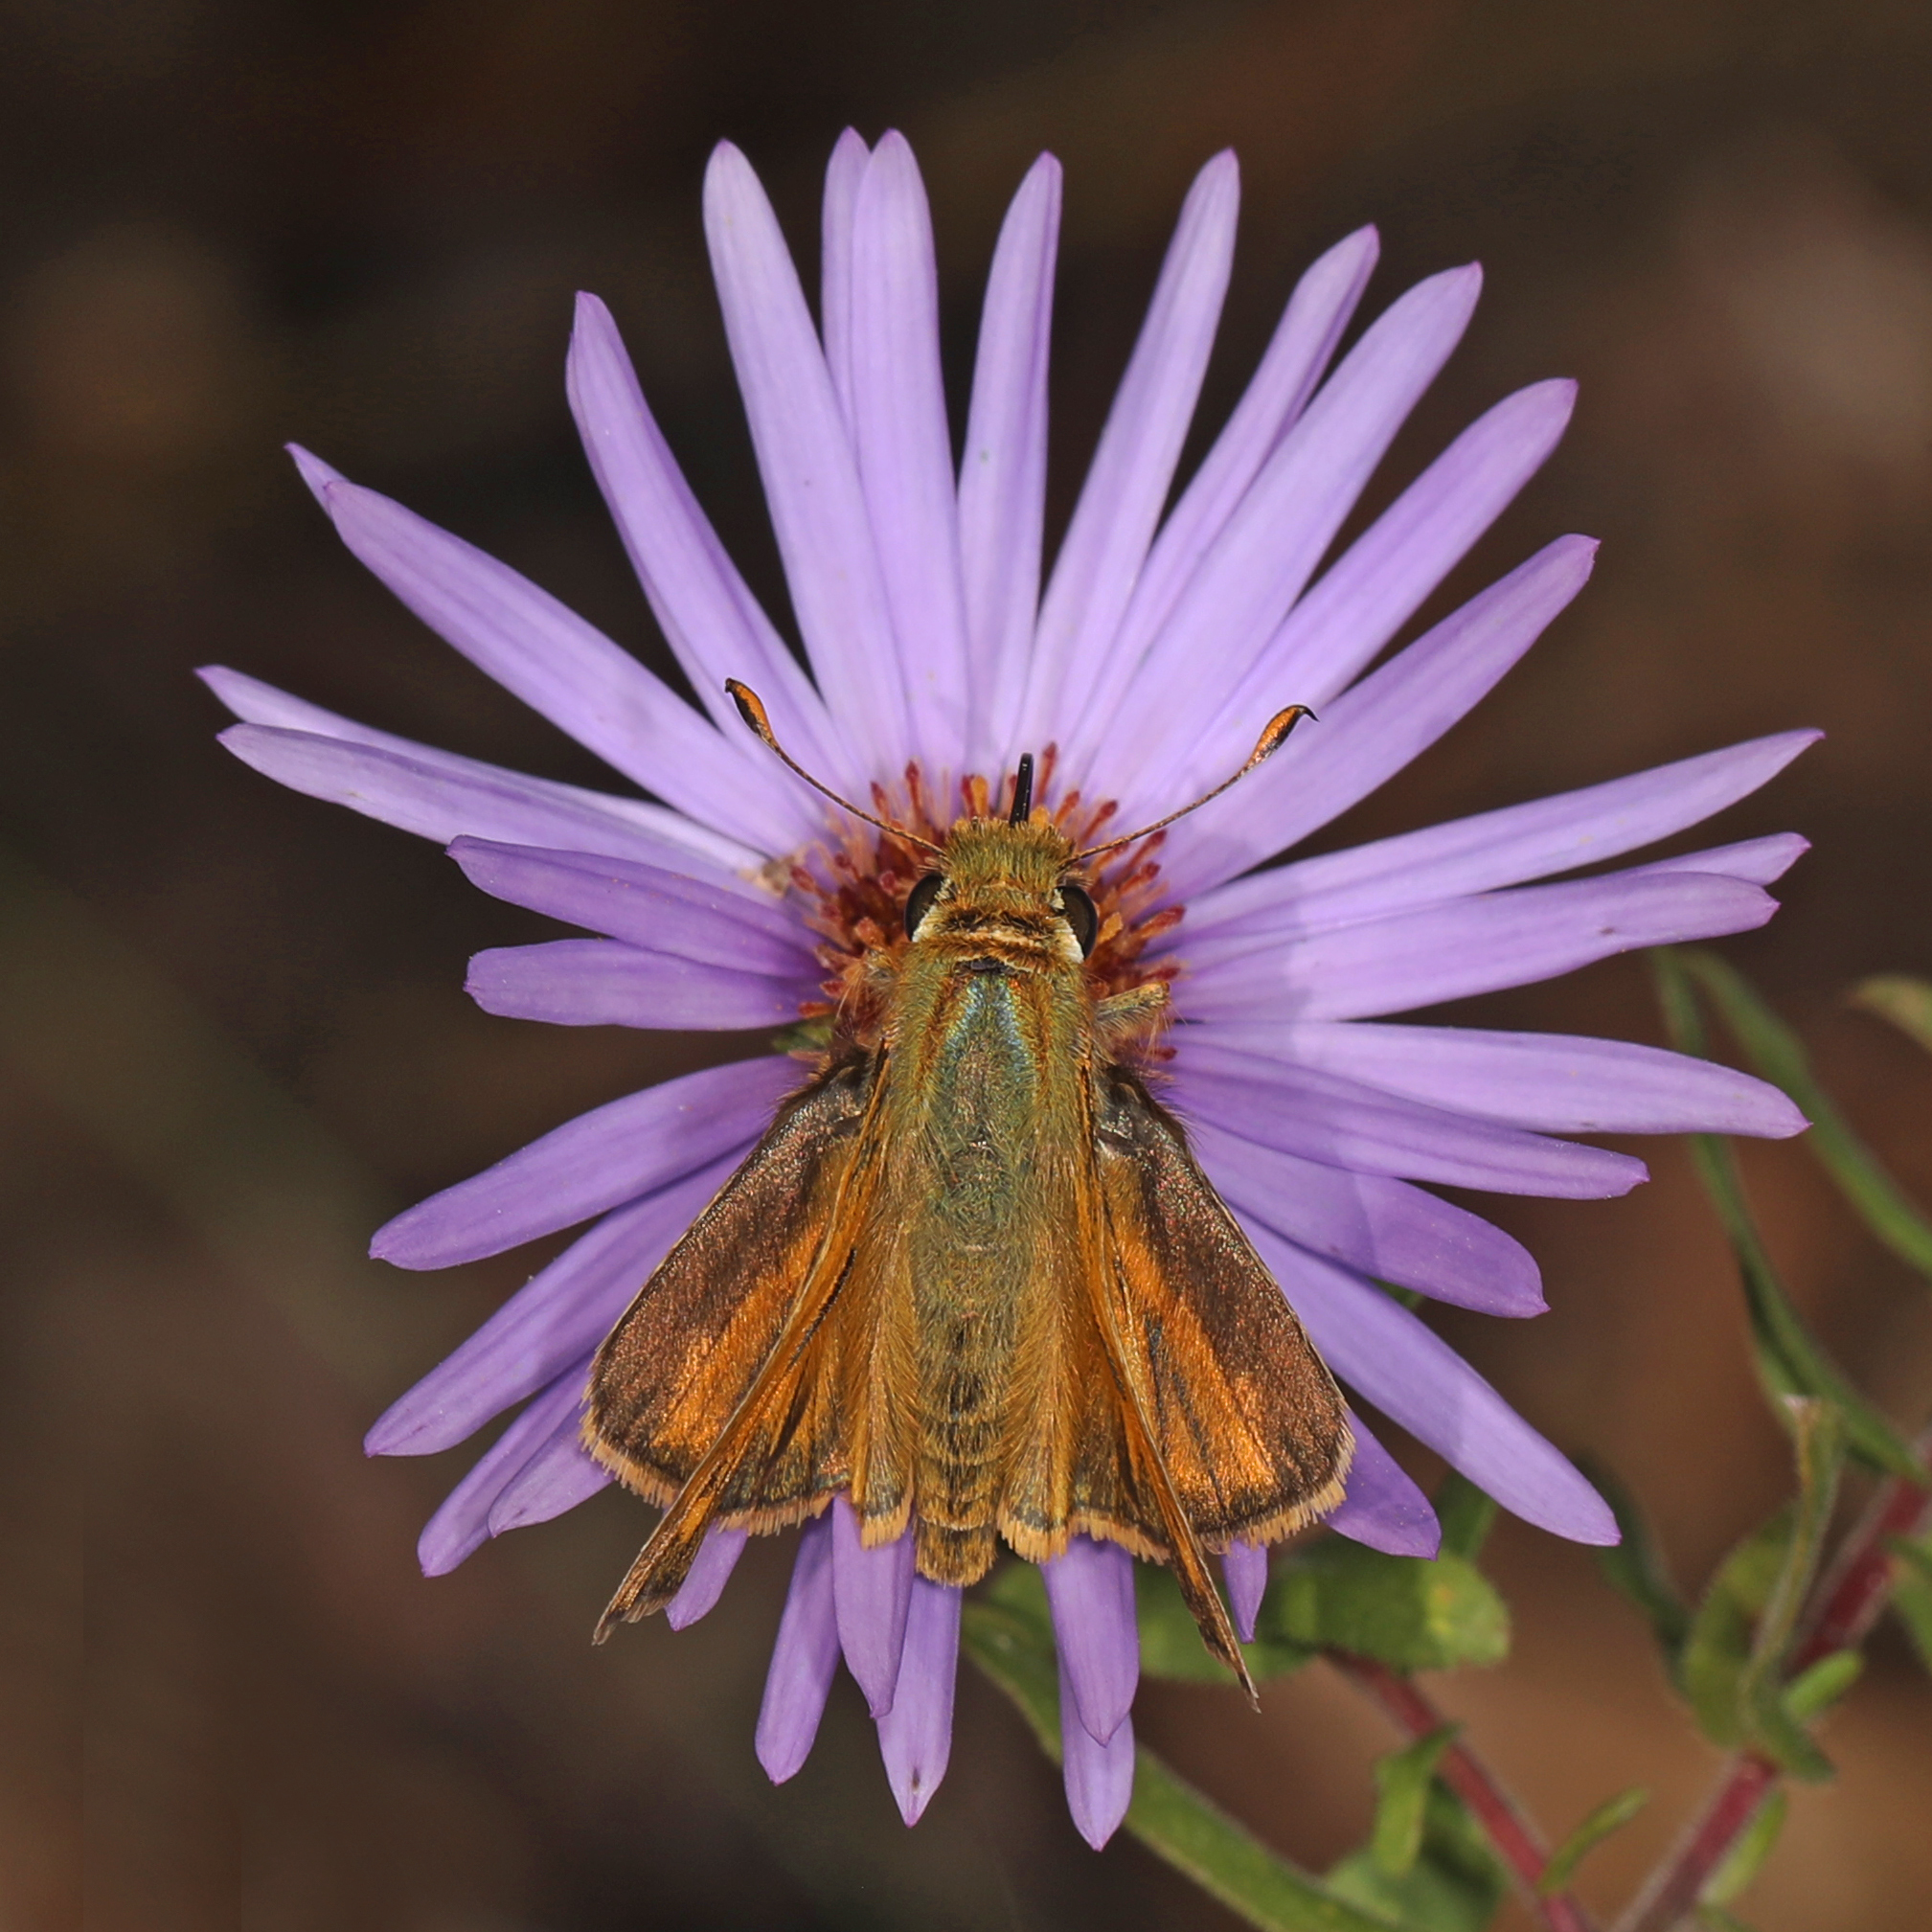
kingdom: Animalia
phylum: Arthropoda
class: Insecta
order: Lepidoptera
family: Hesperiidae
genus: Hylephila
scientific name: Hylephila phyleus
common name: Fiery skipper
